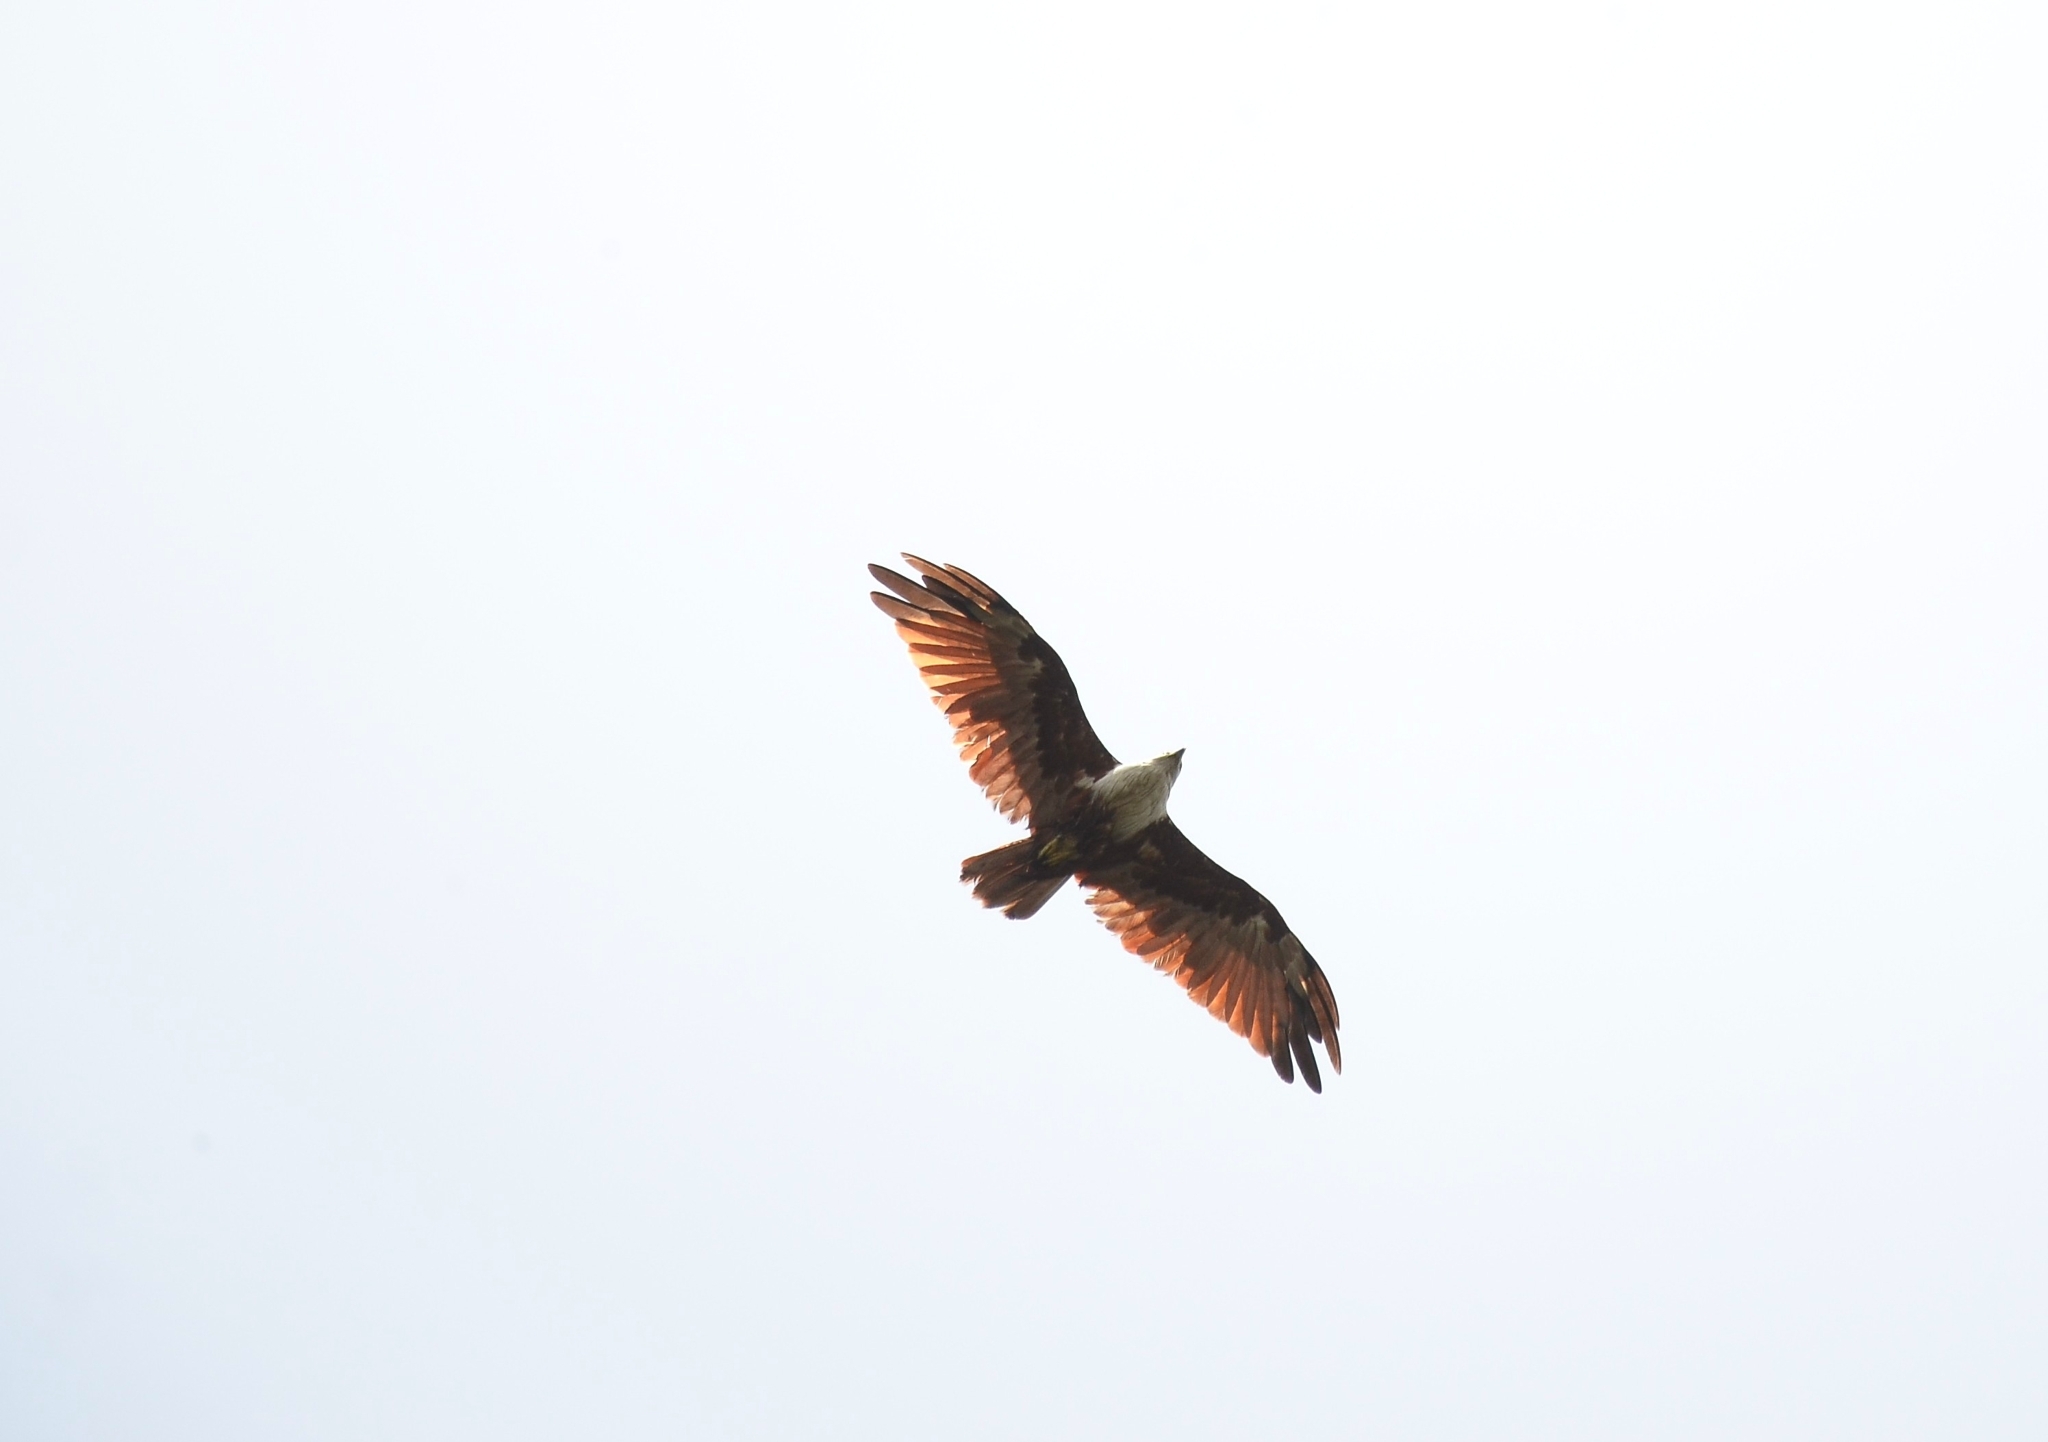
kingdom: Animalia
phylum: Chordata
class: Aves
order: Accipitriformes
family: Accipitridae
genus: Haliastur
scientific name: Haliastur indus
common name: Brahminy kite
